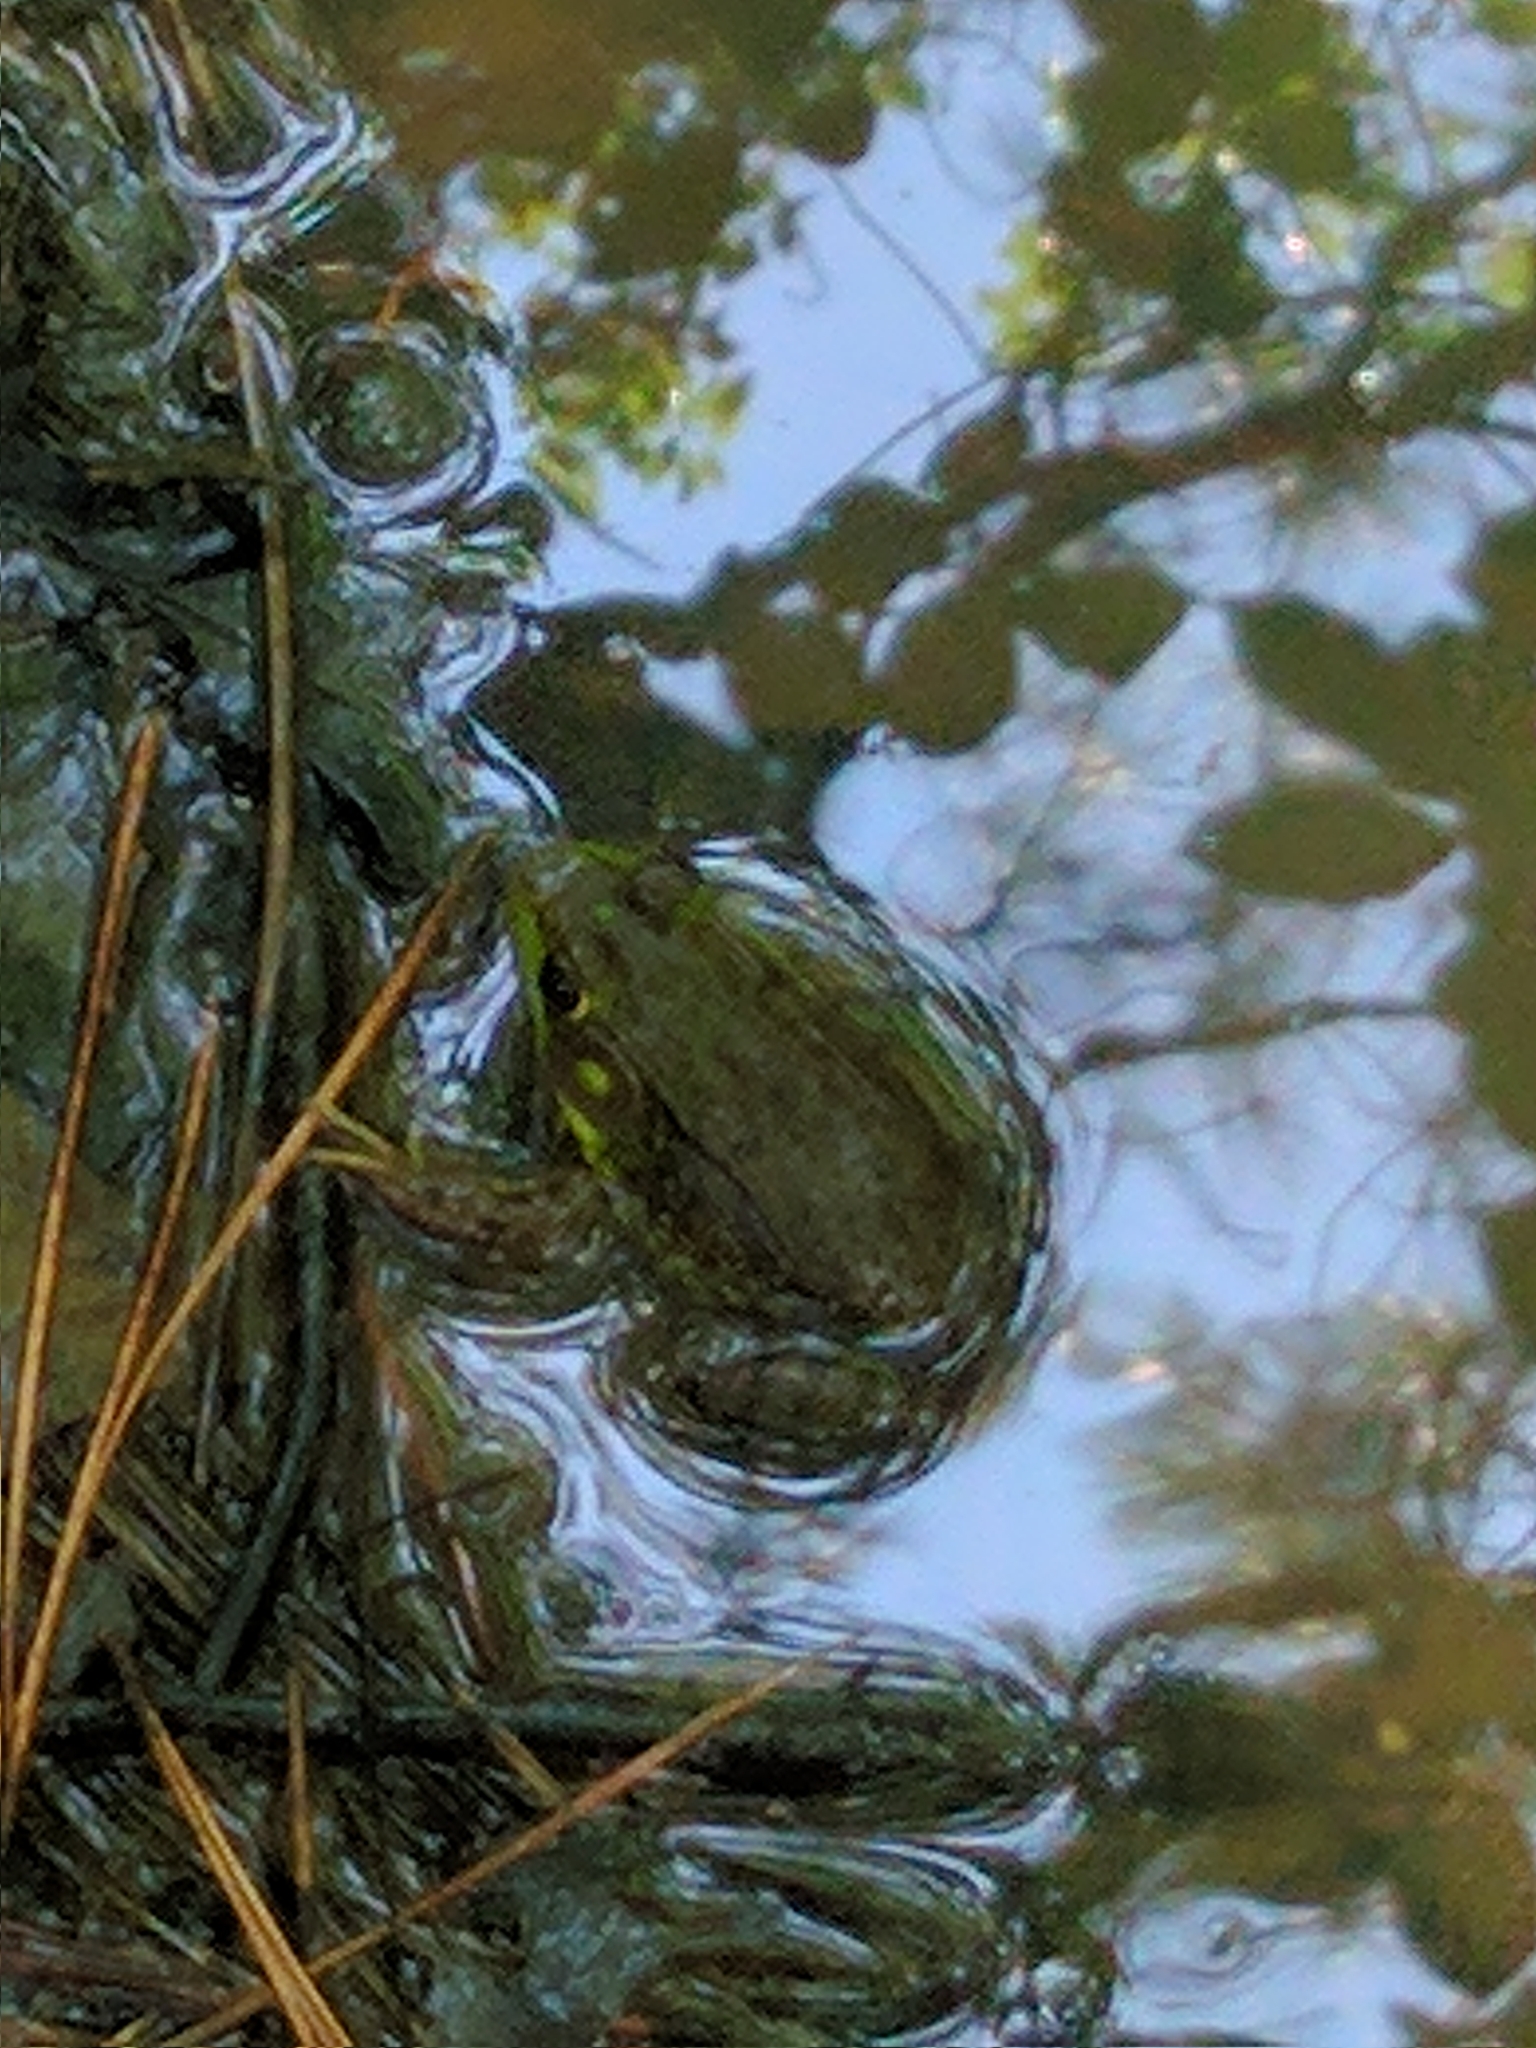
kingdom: Animalia
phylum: Chordata
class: Amphibia
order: Anura
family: Ranidae
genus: Lithobates
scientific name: Lithobates clamitans
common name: Green frog
